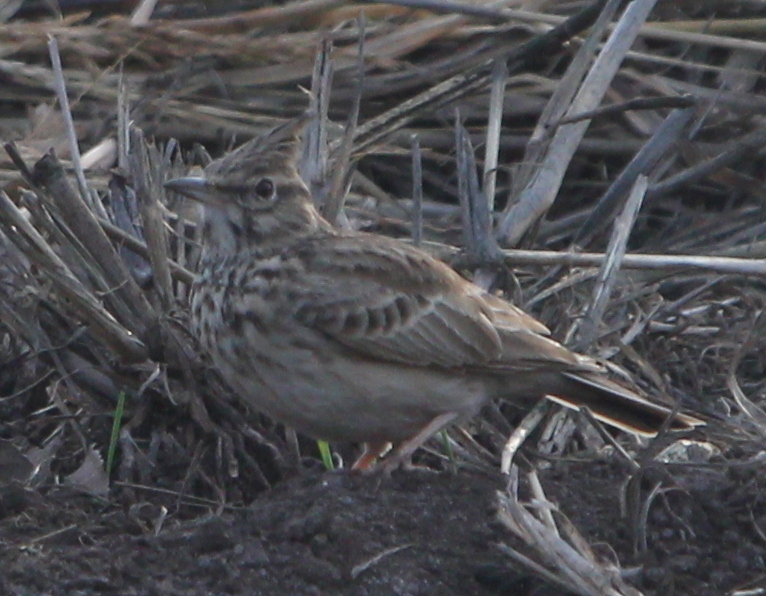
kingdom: Animalia
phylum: Chordata
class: Aves
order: Passeriformes
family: Alaudidae
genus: Galerida
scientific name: Galerida cristata
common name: Crested lark
